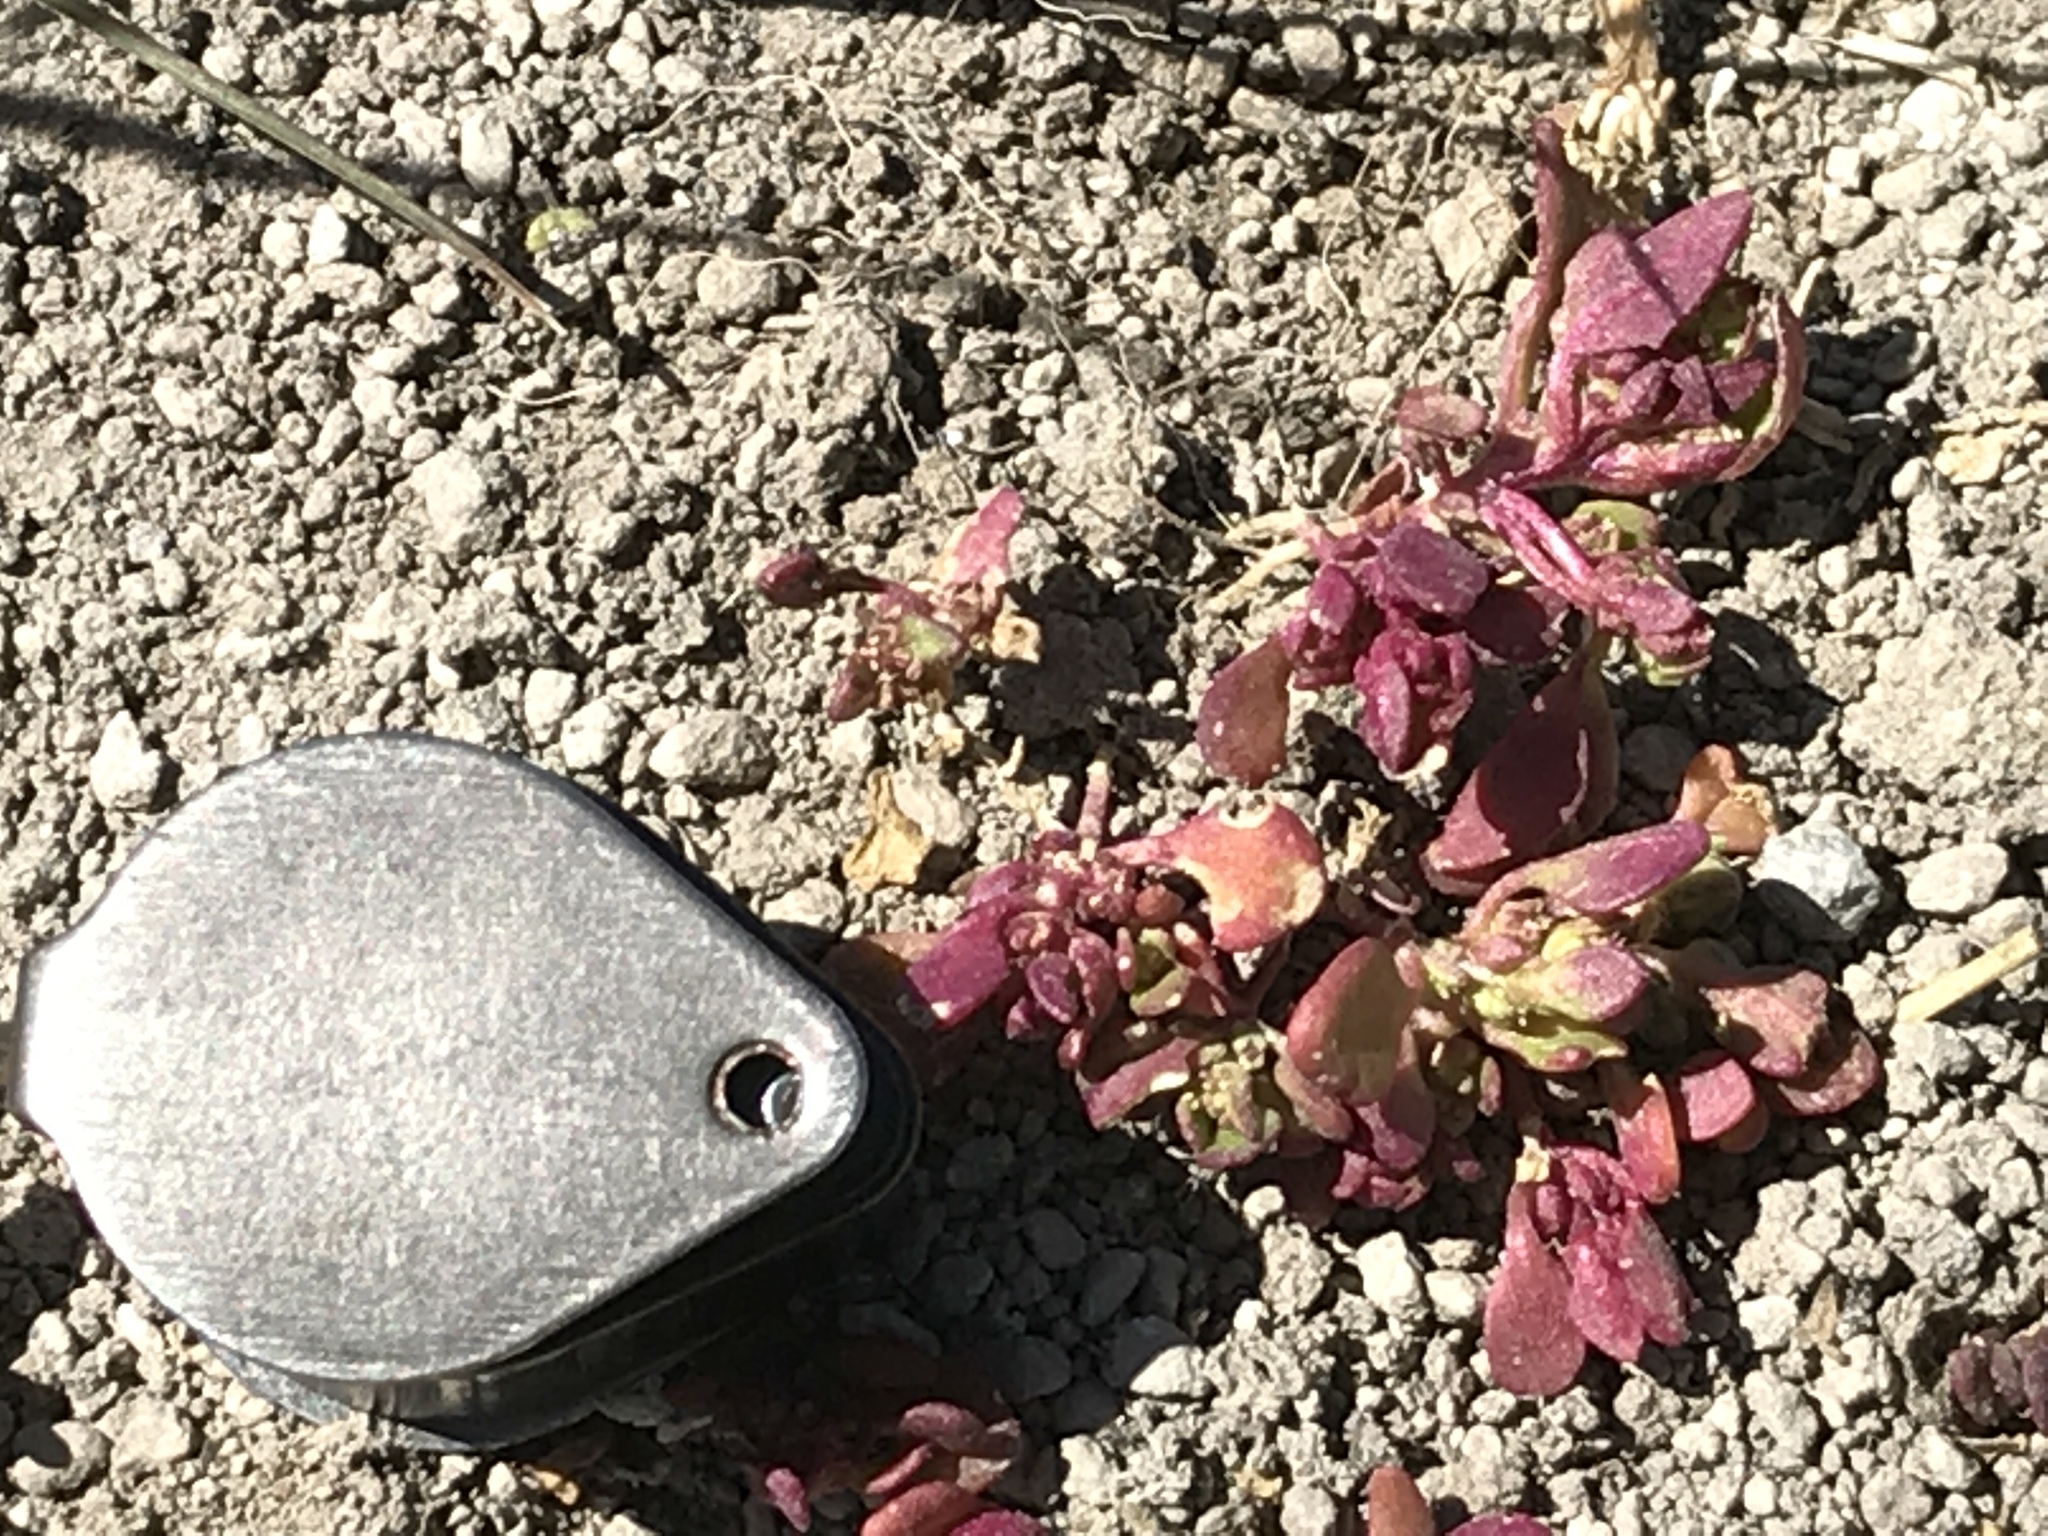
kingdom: Plantae
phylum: Tracheophyta
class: Magnoliopsida
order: Caryophyllales
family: Amaranthaceae
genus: Oxybasis
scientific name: Oxybasis rubra
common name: Red goosefoot
